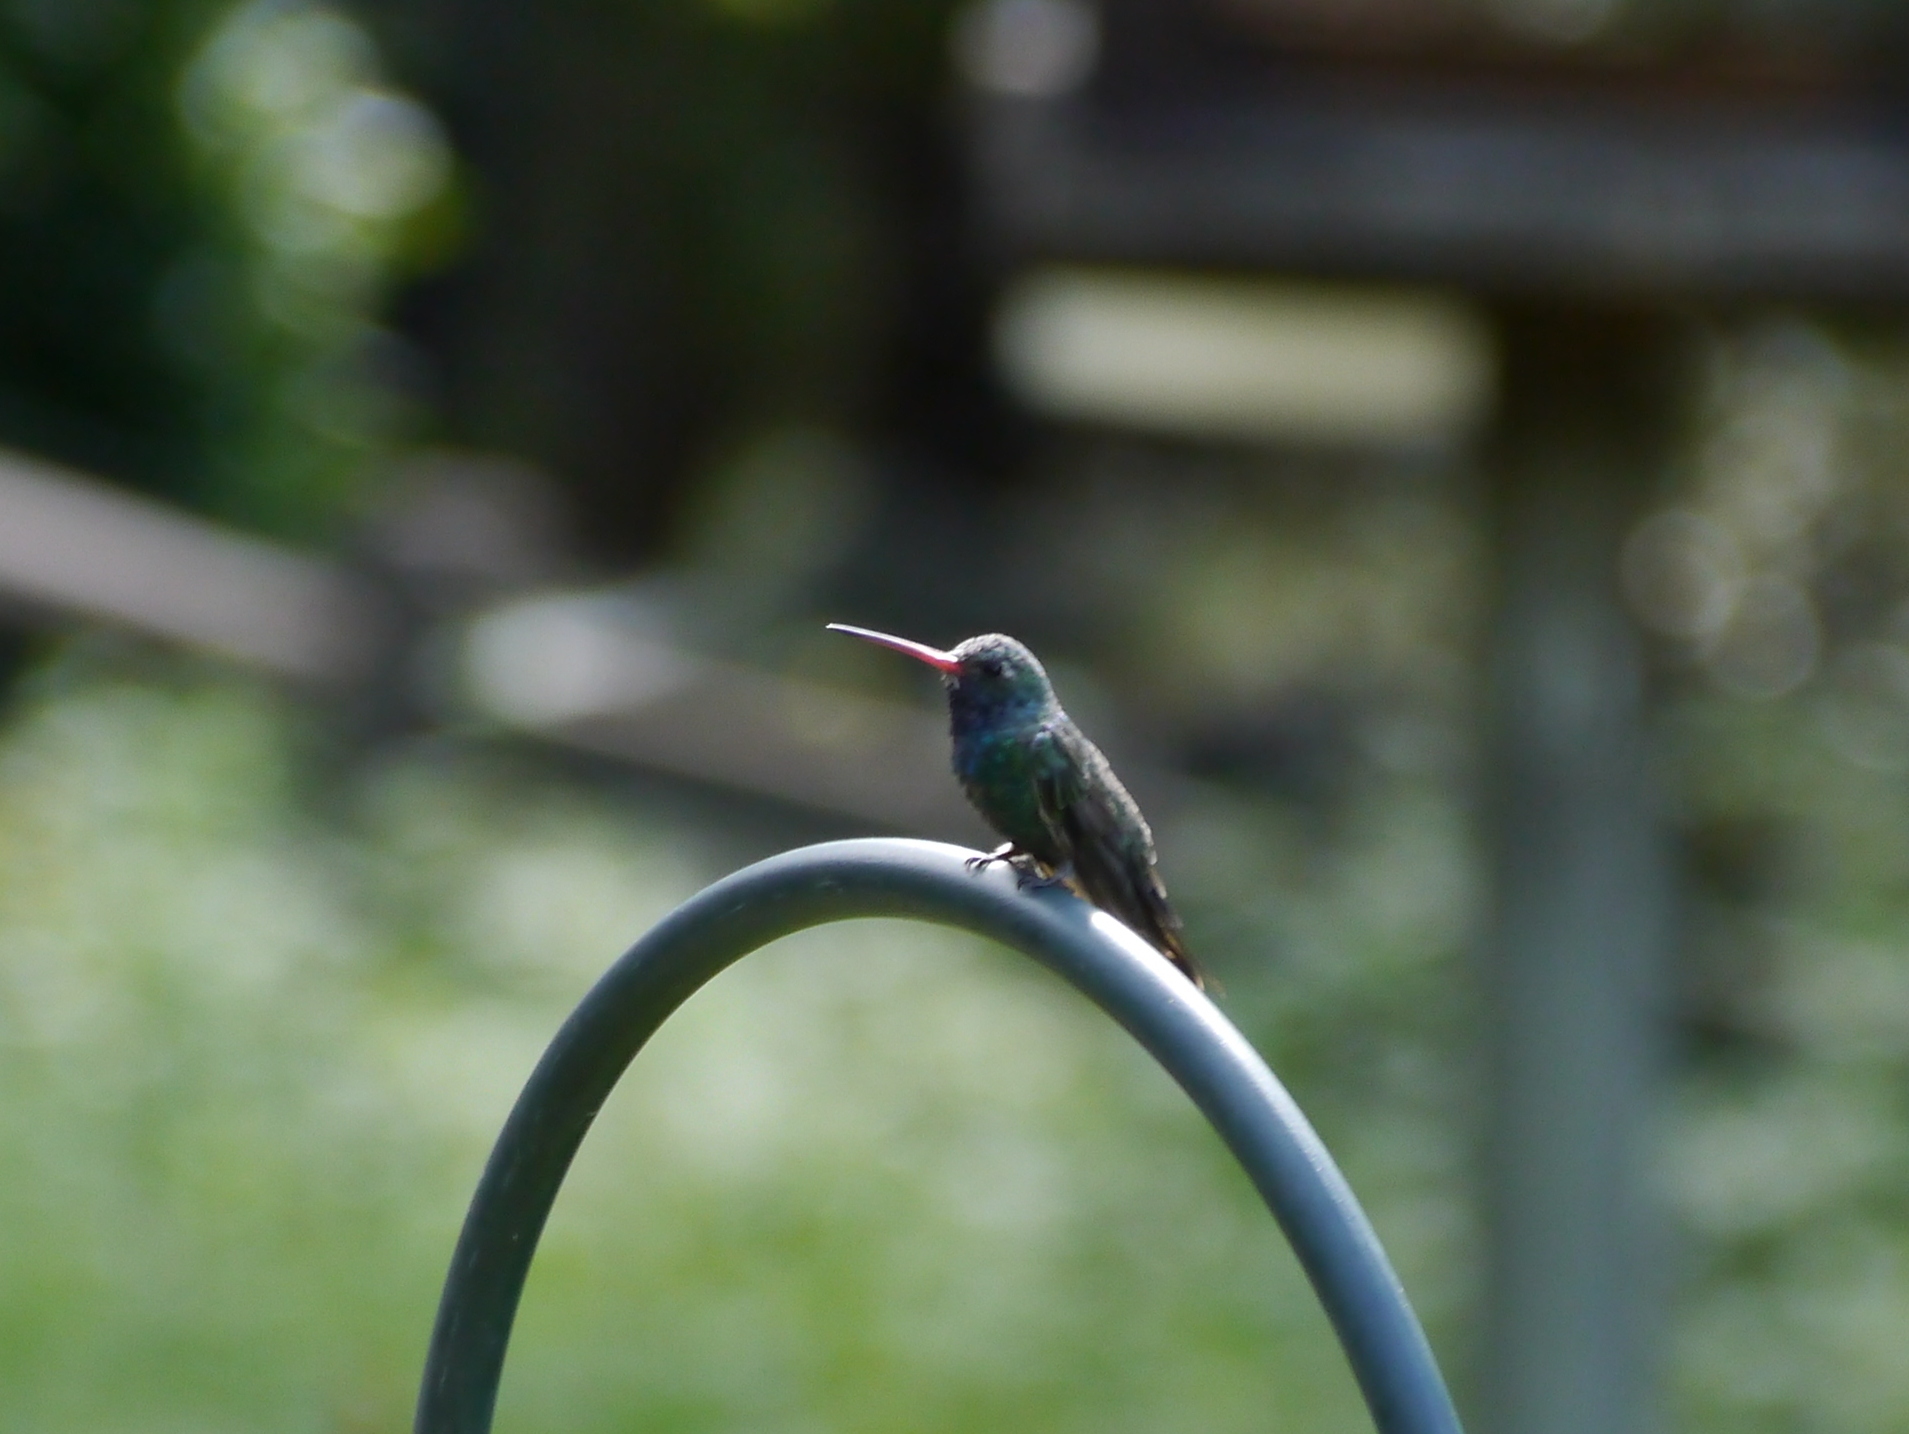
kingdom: Animalia
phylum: Chordata
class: Aves
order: Apodiformes
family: Trochilidae
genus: Cynanthus
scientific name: Cynanthus latirostris
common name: Broad-billed hummingbird
